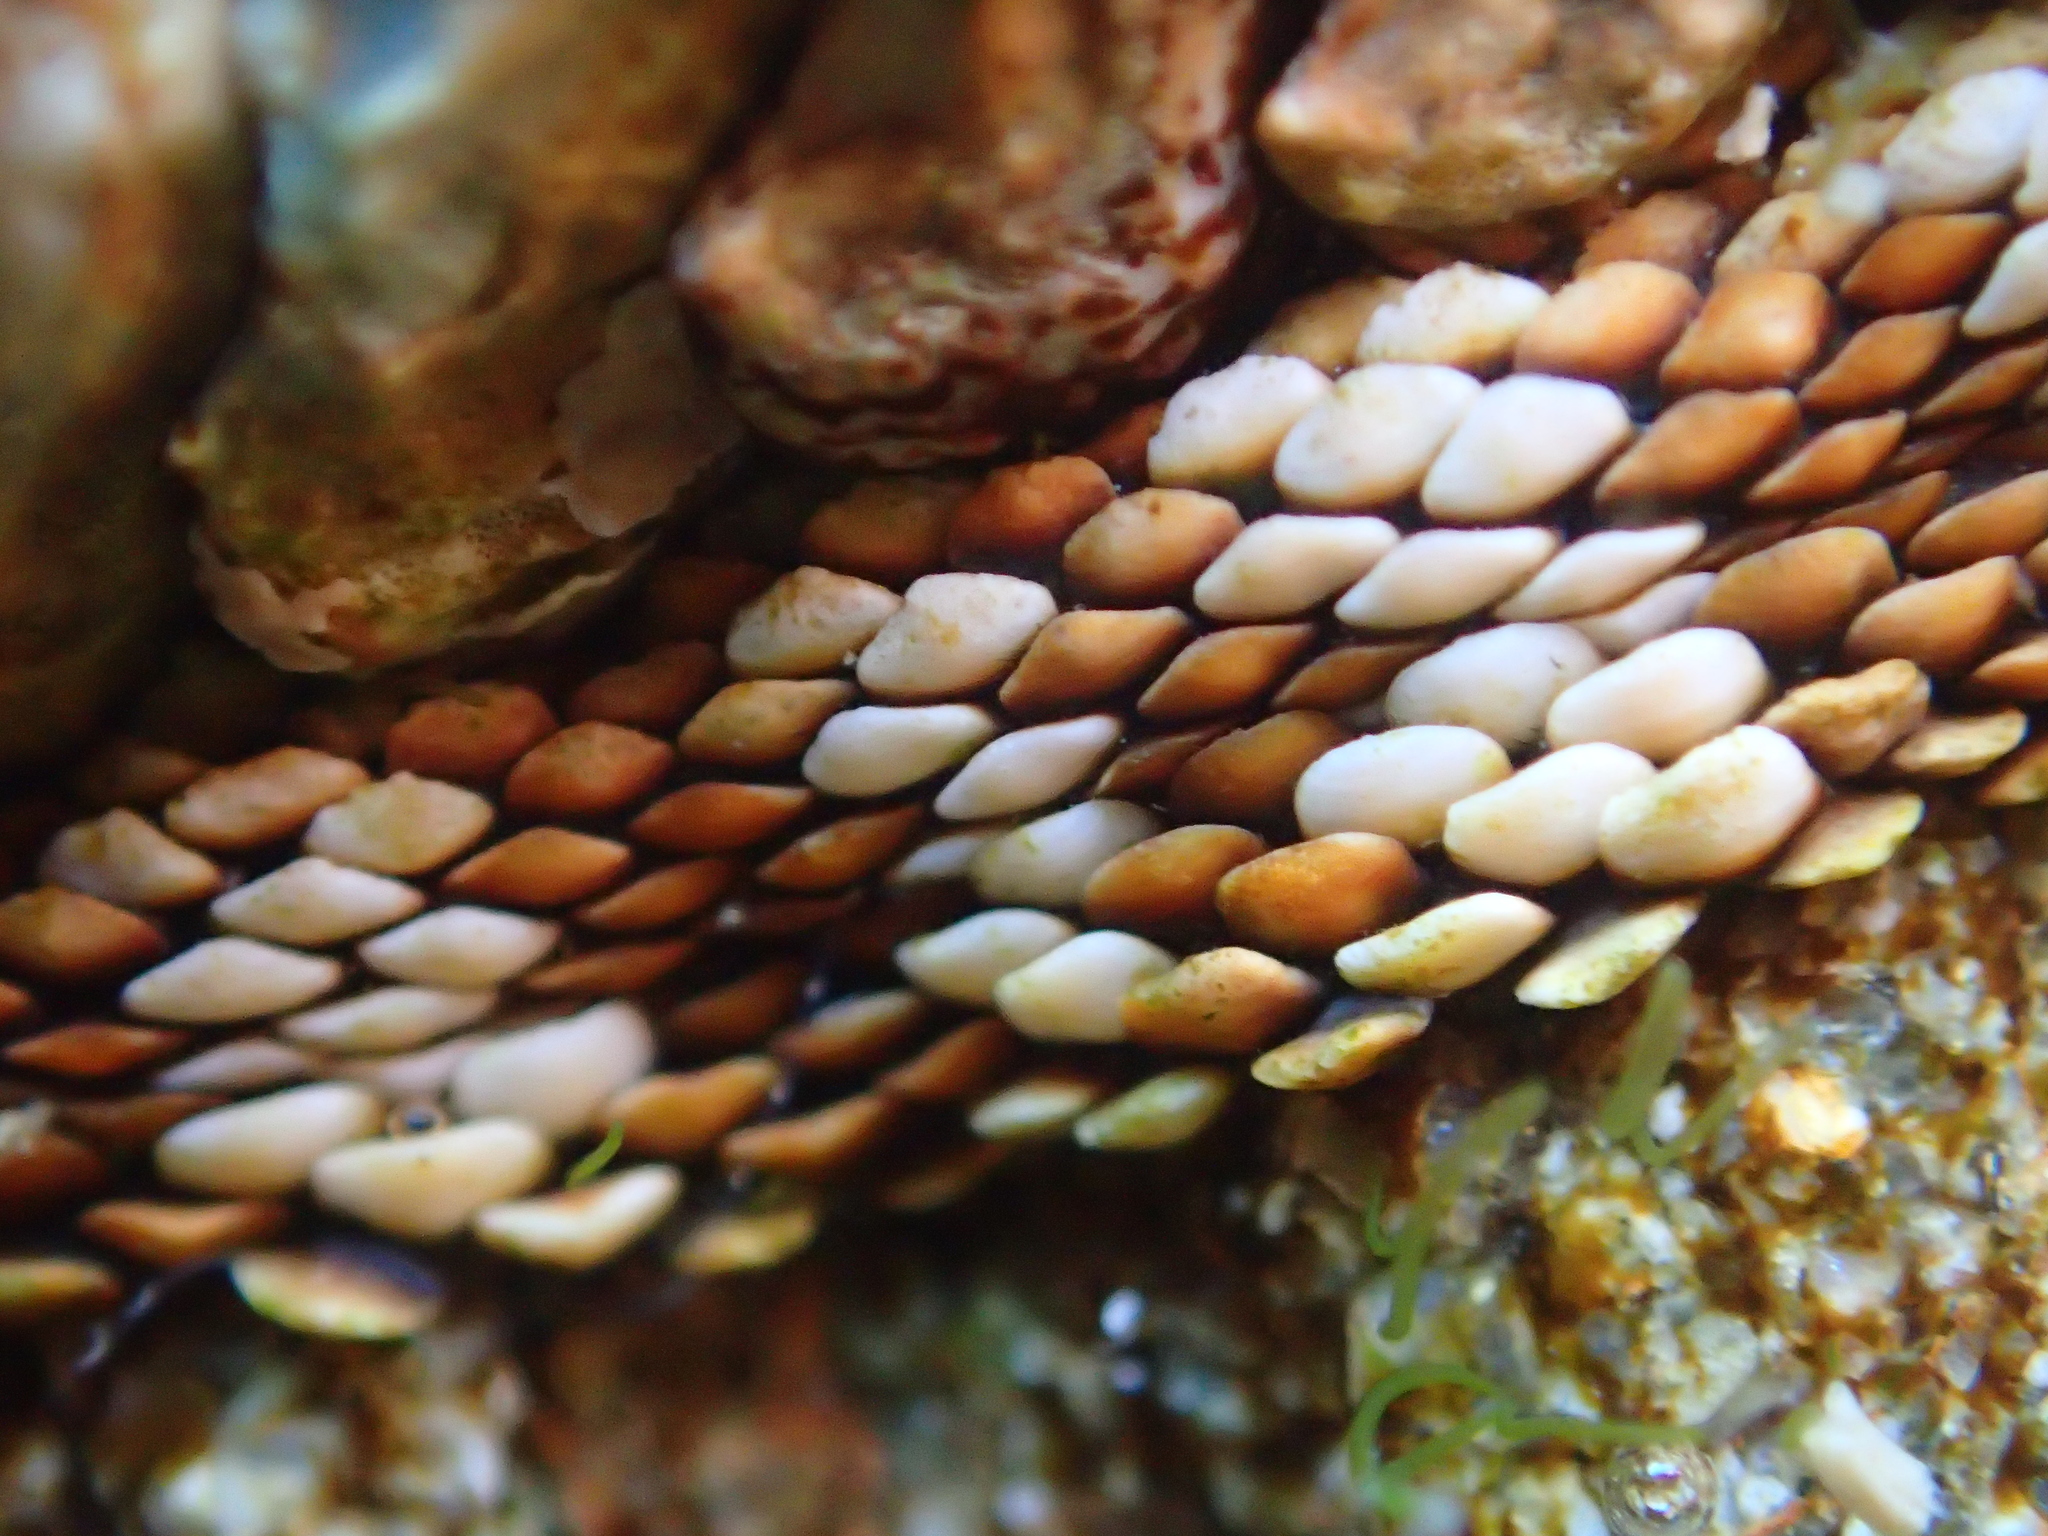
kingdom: Animalia
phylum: Mollusca
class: Polyplacophora
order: Chitonida
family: Chitonidae
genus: Sypharochiton
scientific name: Sypharochiton pelliserpentis
